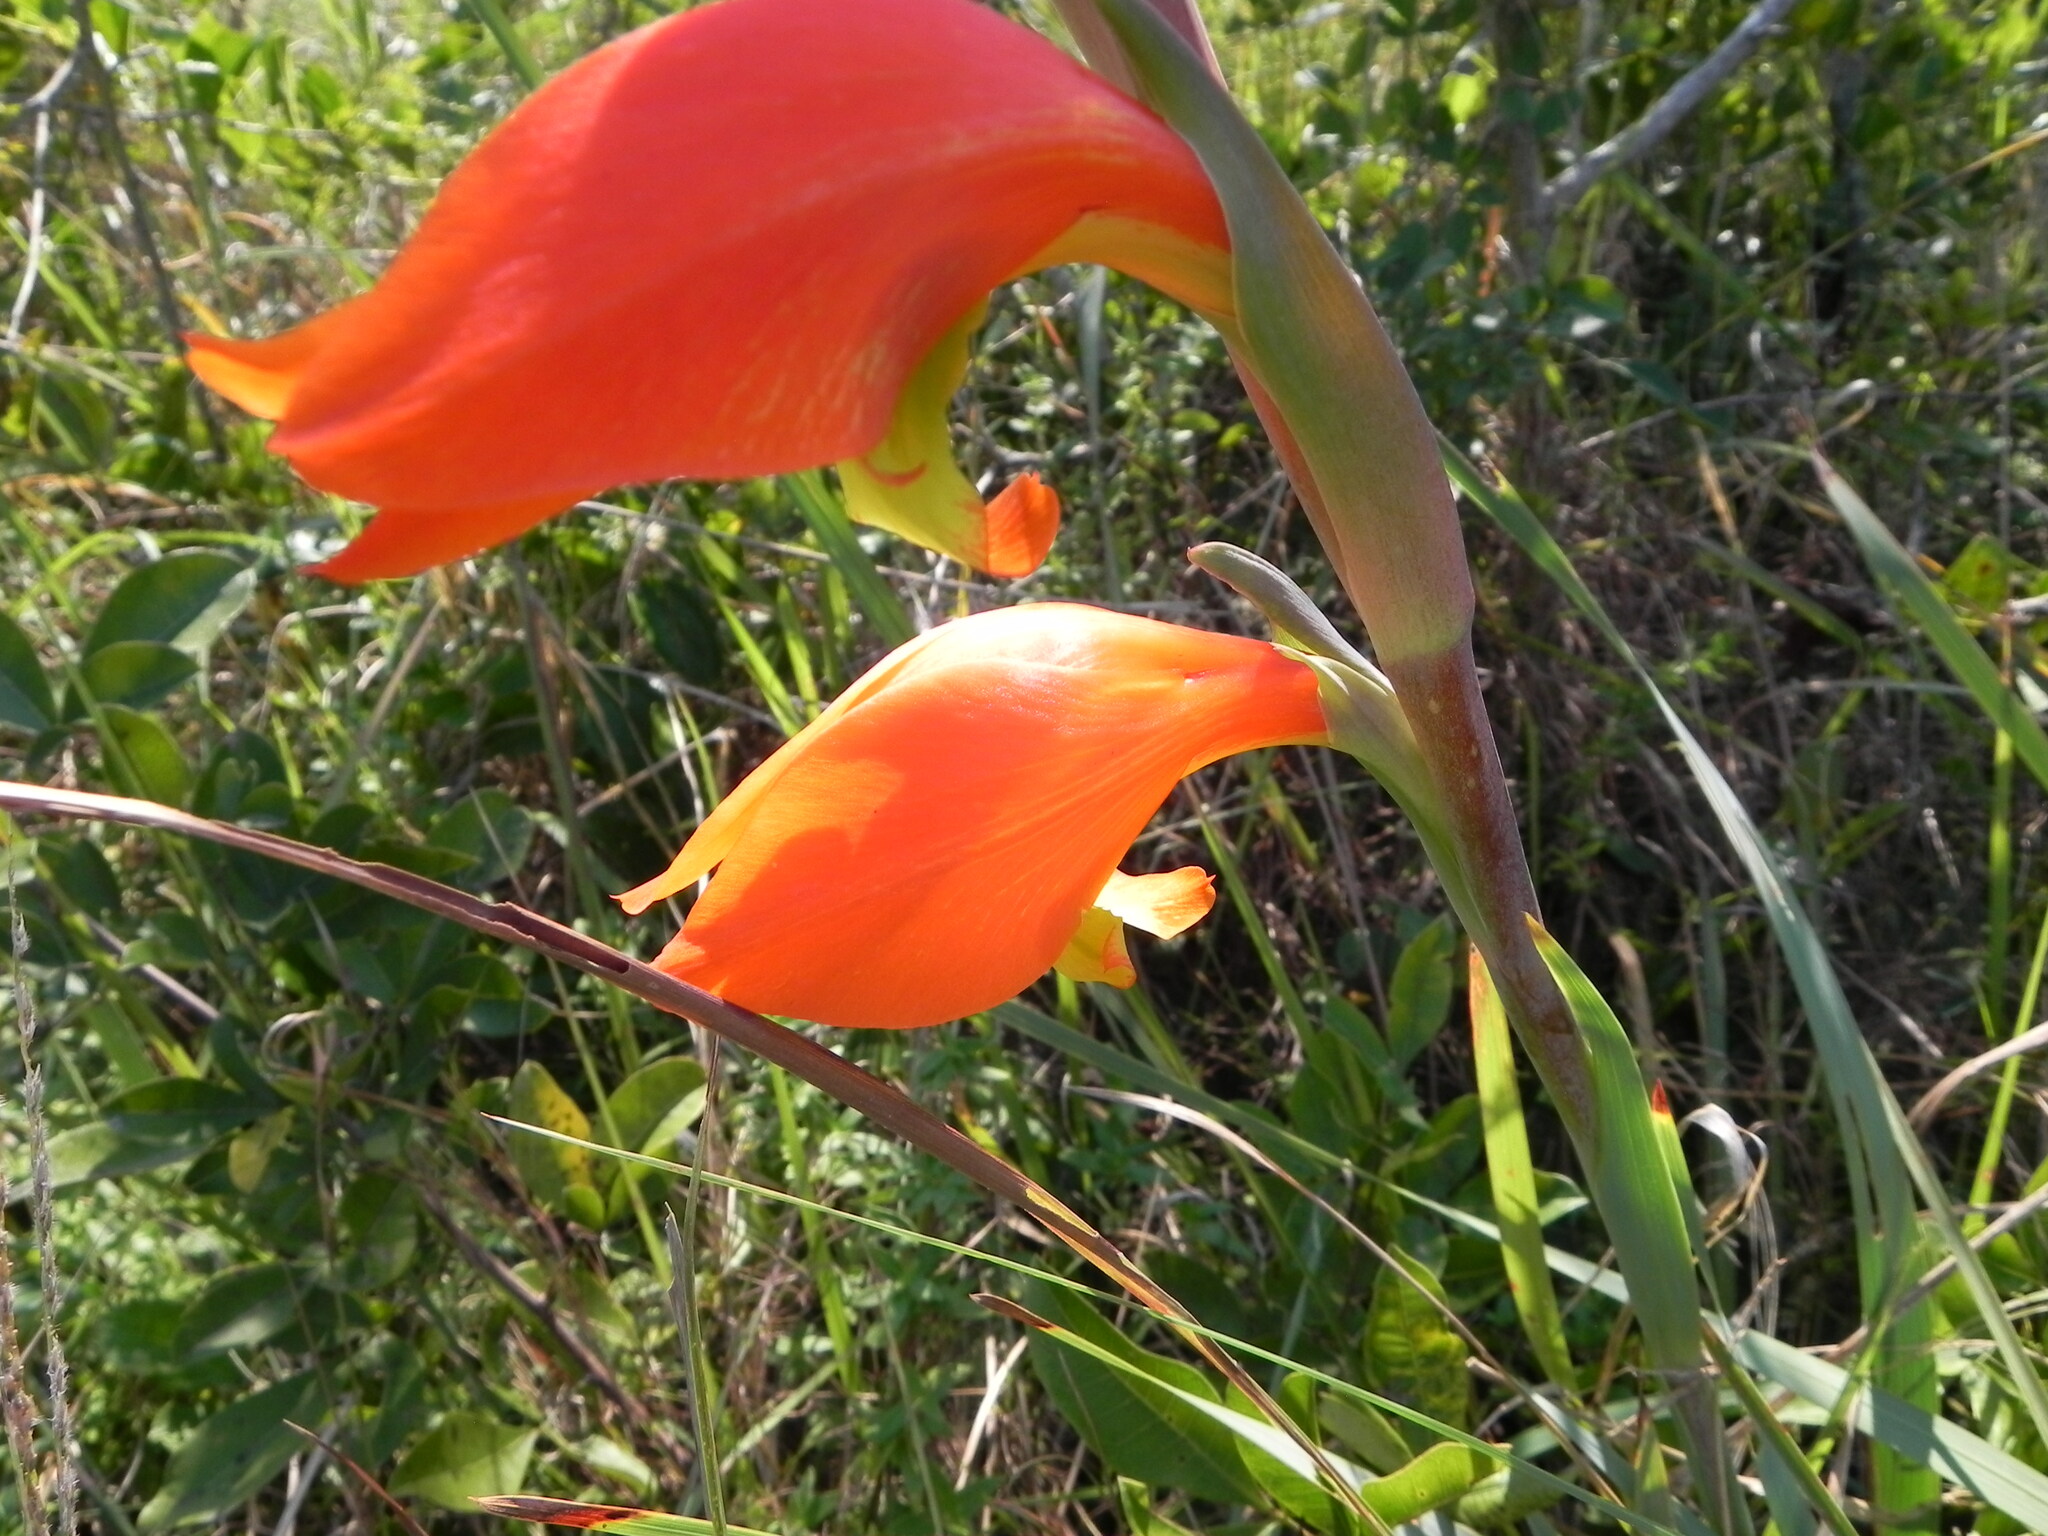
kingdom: Plantae
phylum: Tracheophyta
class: Liliopsida
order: Asparagales
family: Iridaceae
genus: Gladiolus
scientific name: Gladiolus dalenii
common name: Cornflag
